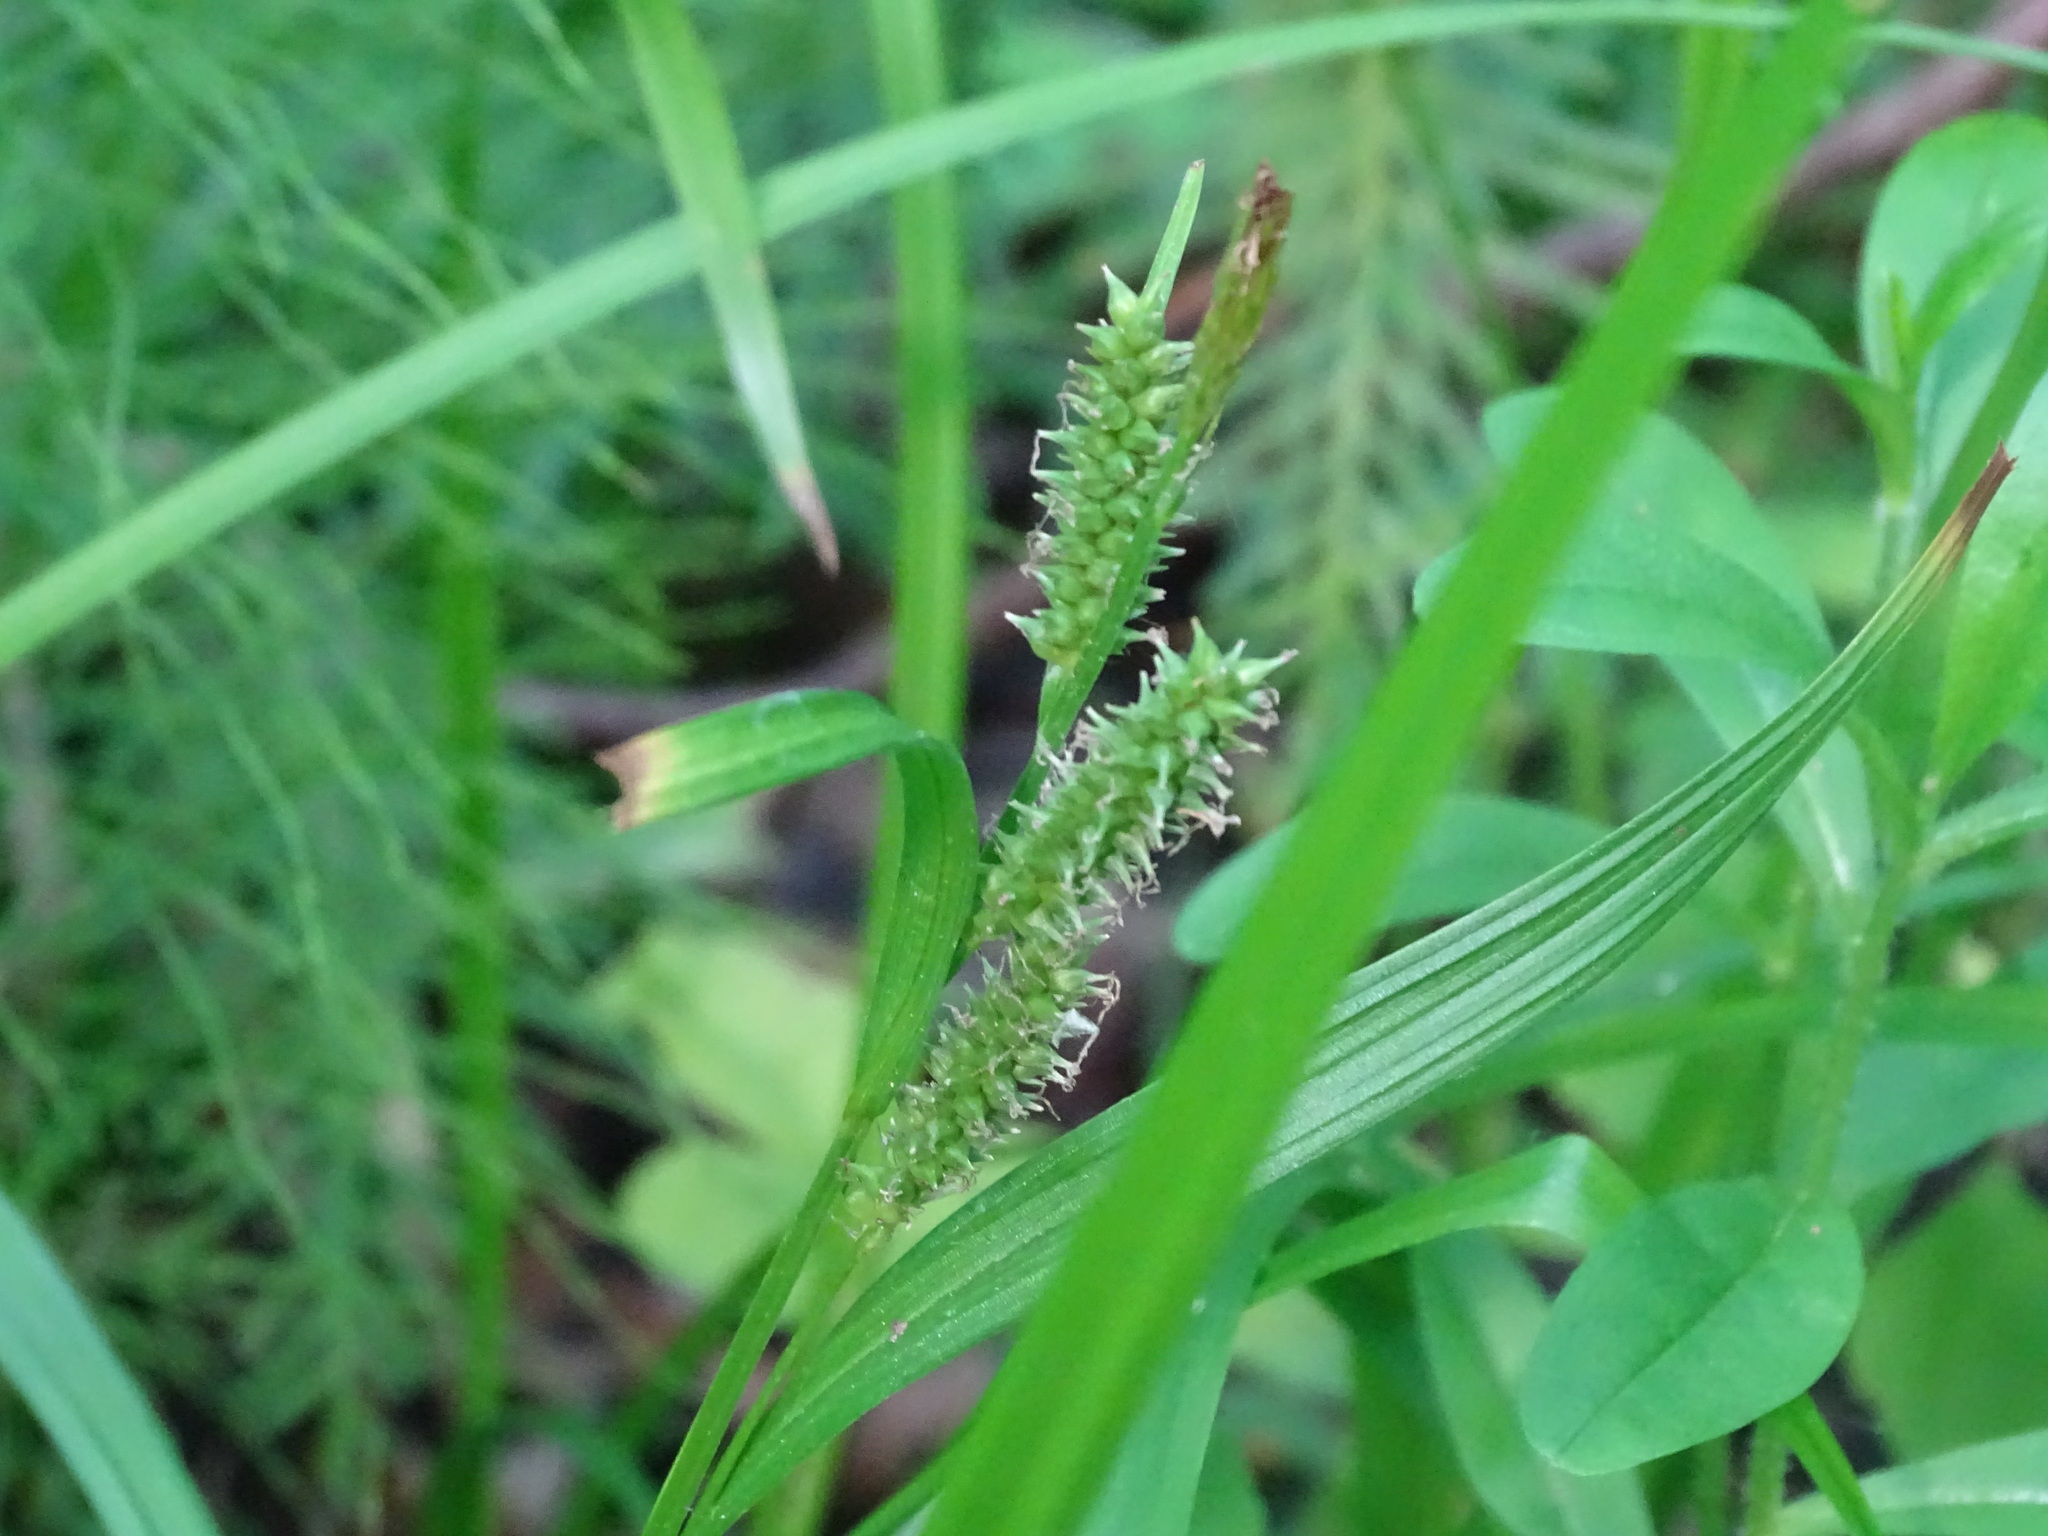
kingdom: Plantae
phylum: Tracheophyta
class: Liliopsida
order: Poales
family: Cyperaceae
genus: Carex
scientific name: Carex scabrata
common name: Eastern rough sedge
